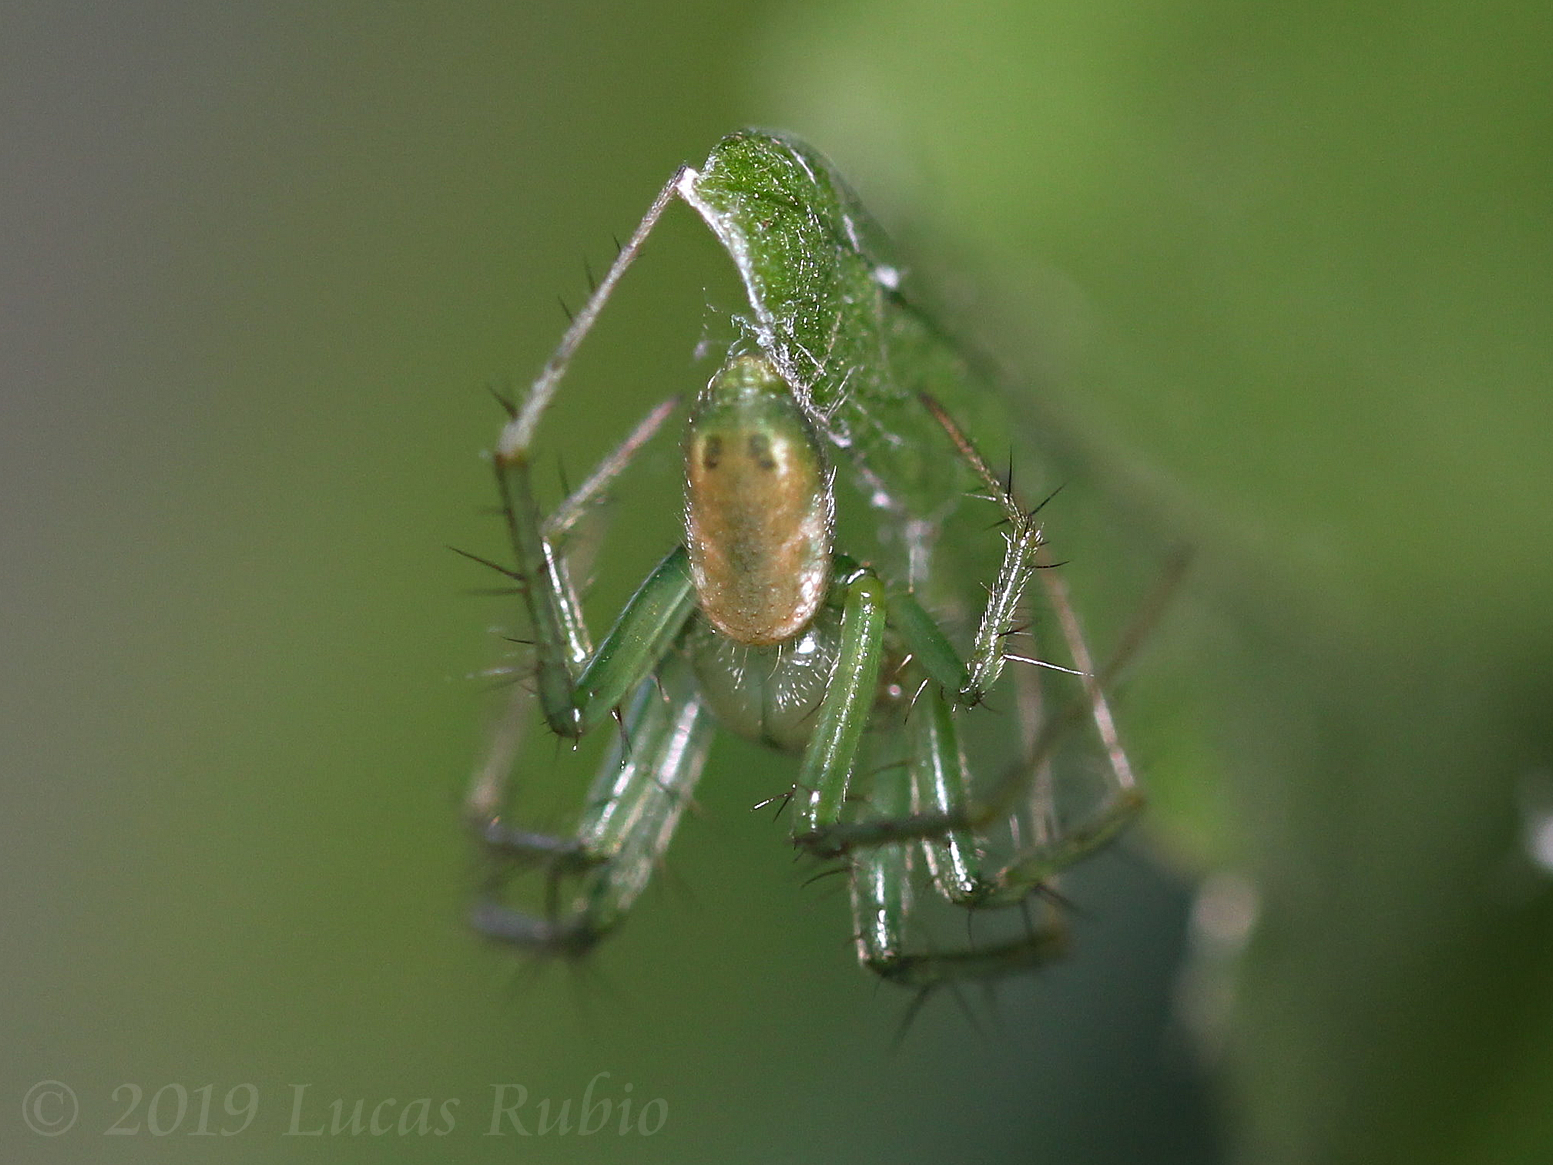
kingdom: Animalia
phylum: Arthropoda
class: Arachnida
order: Araneae
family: Araneidae
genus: Mangora
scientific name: Mangora lactea
